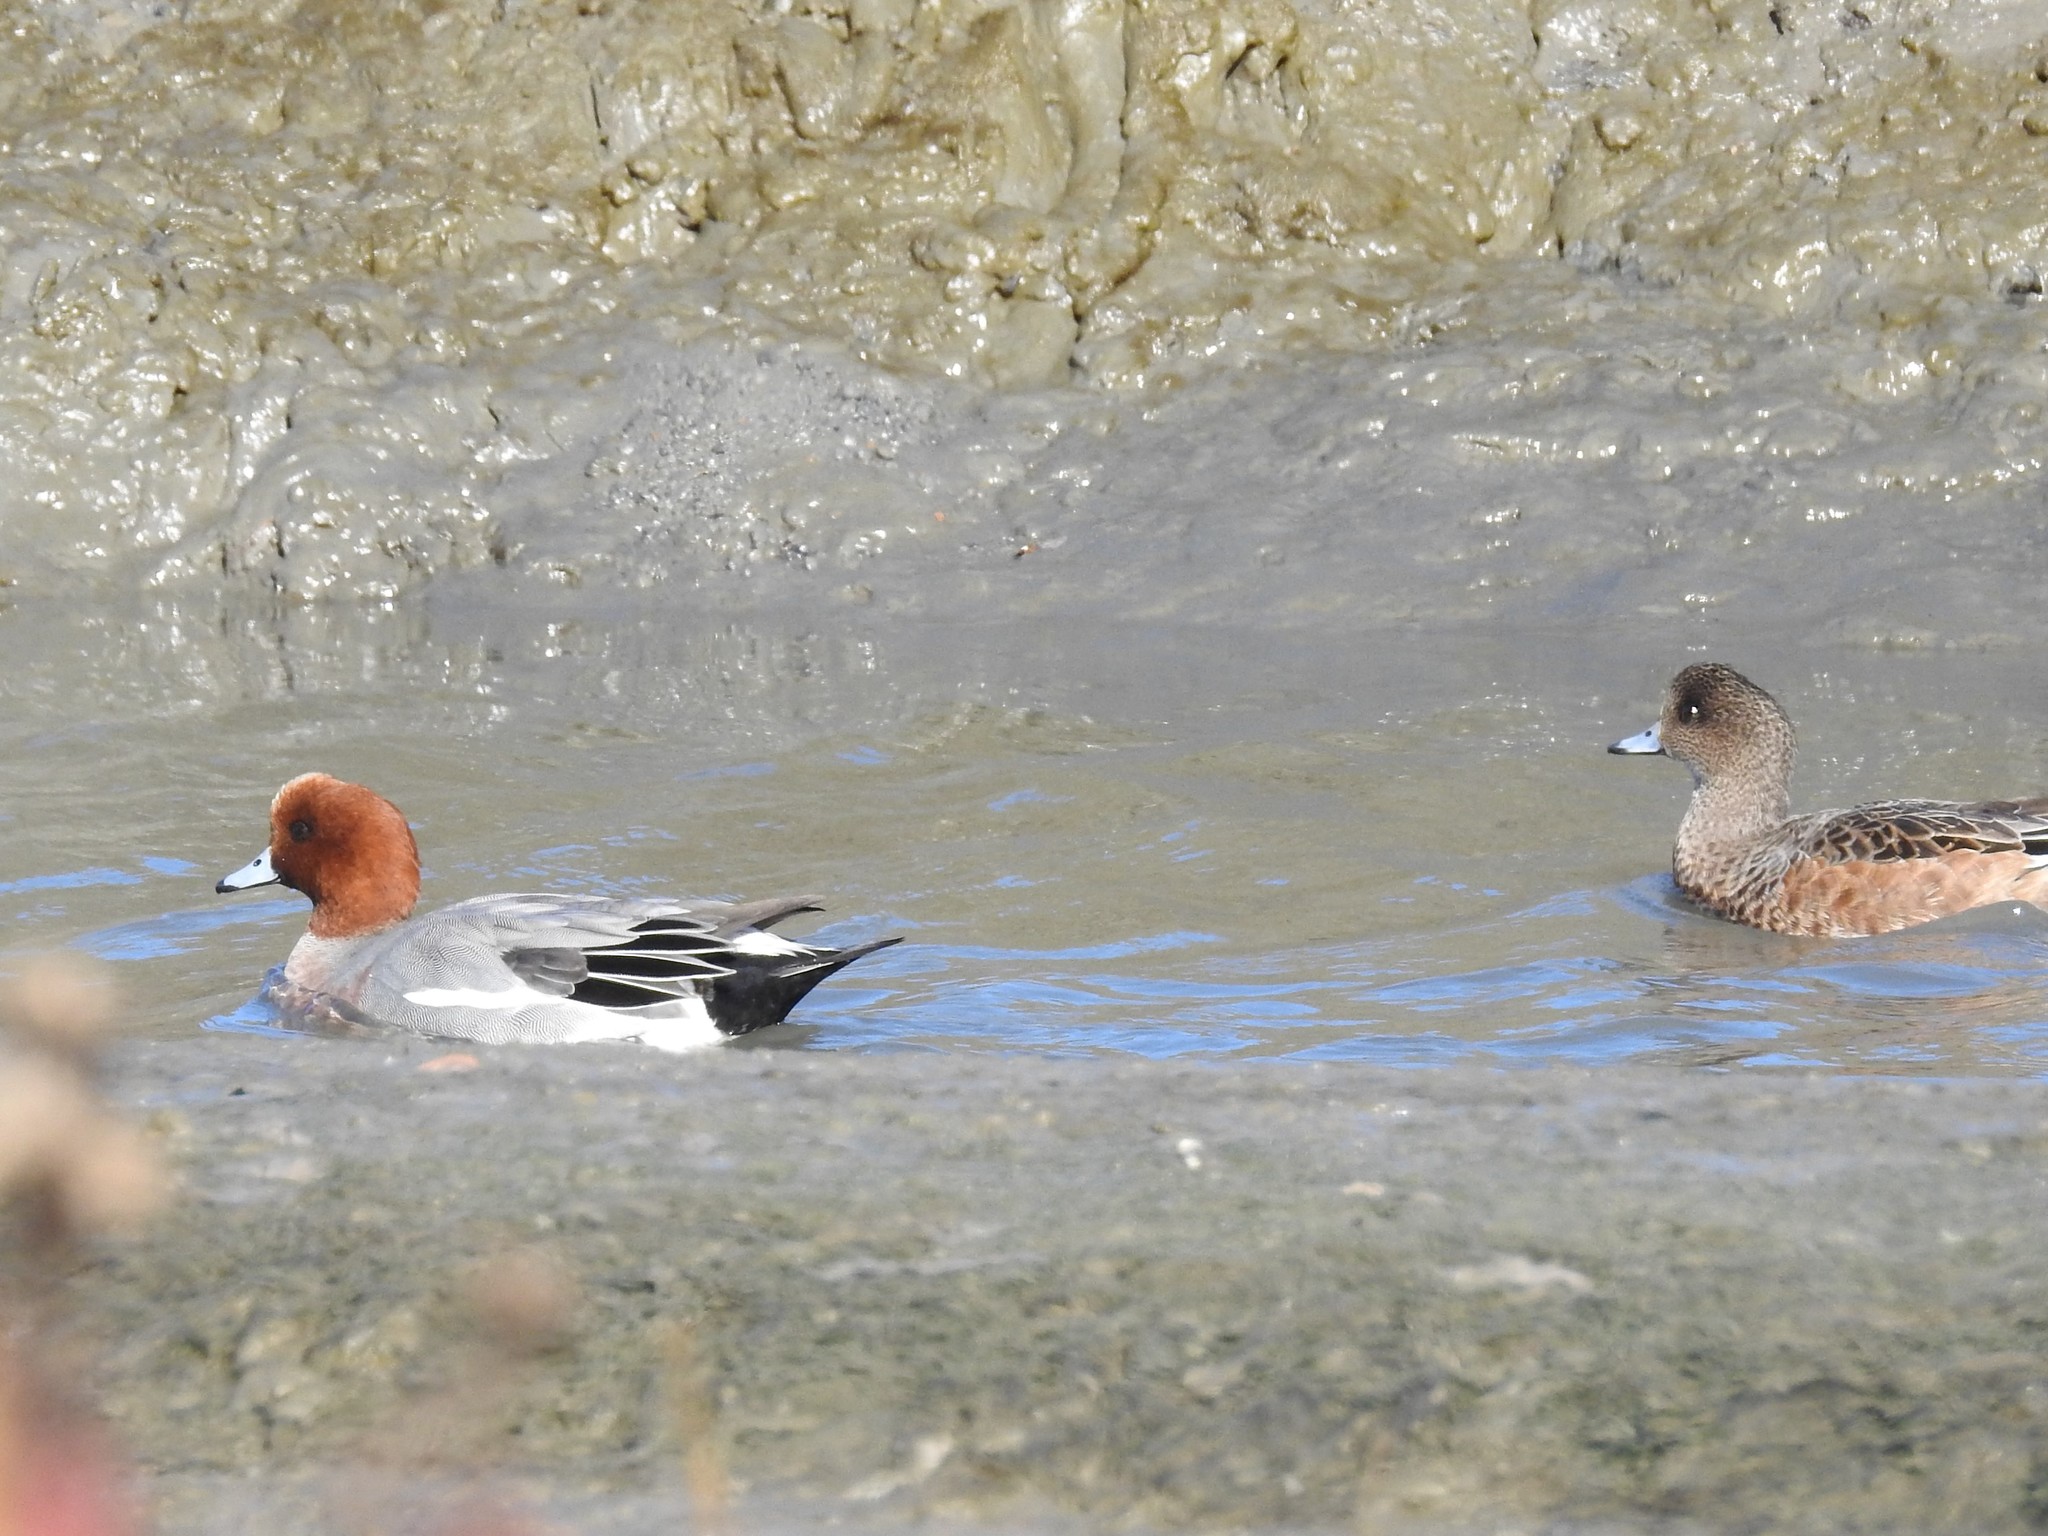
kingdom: Animalia
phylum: Chordata
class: Aves
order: Anseriformes
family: Anatidae
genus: Mareca
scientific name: Mareca penelope
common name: Eurasian wigeon
